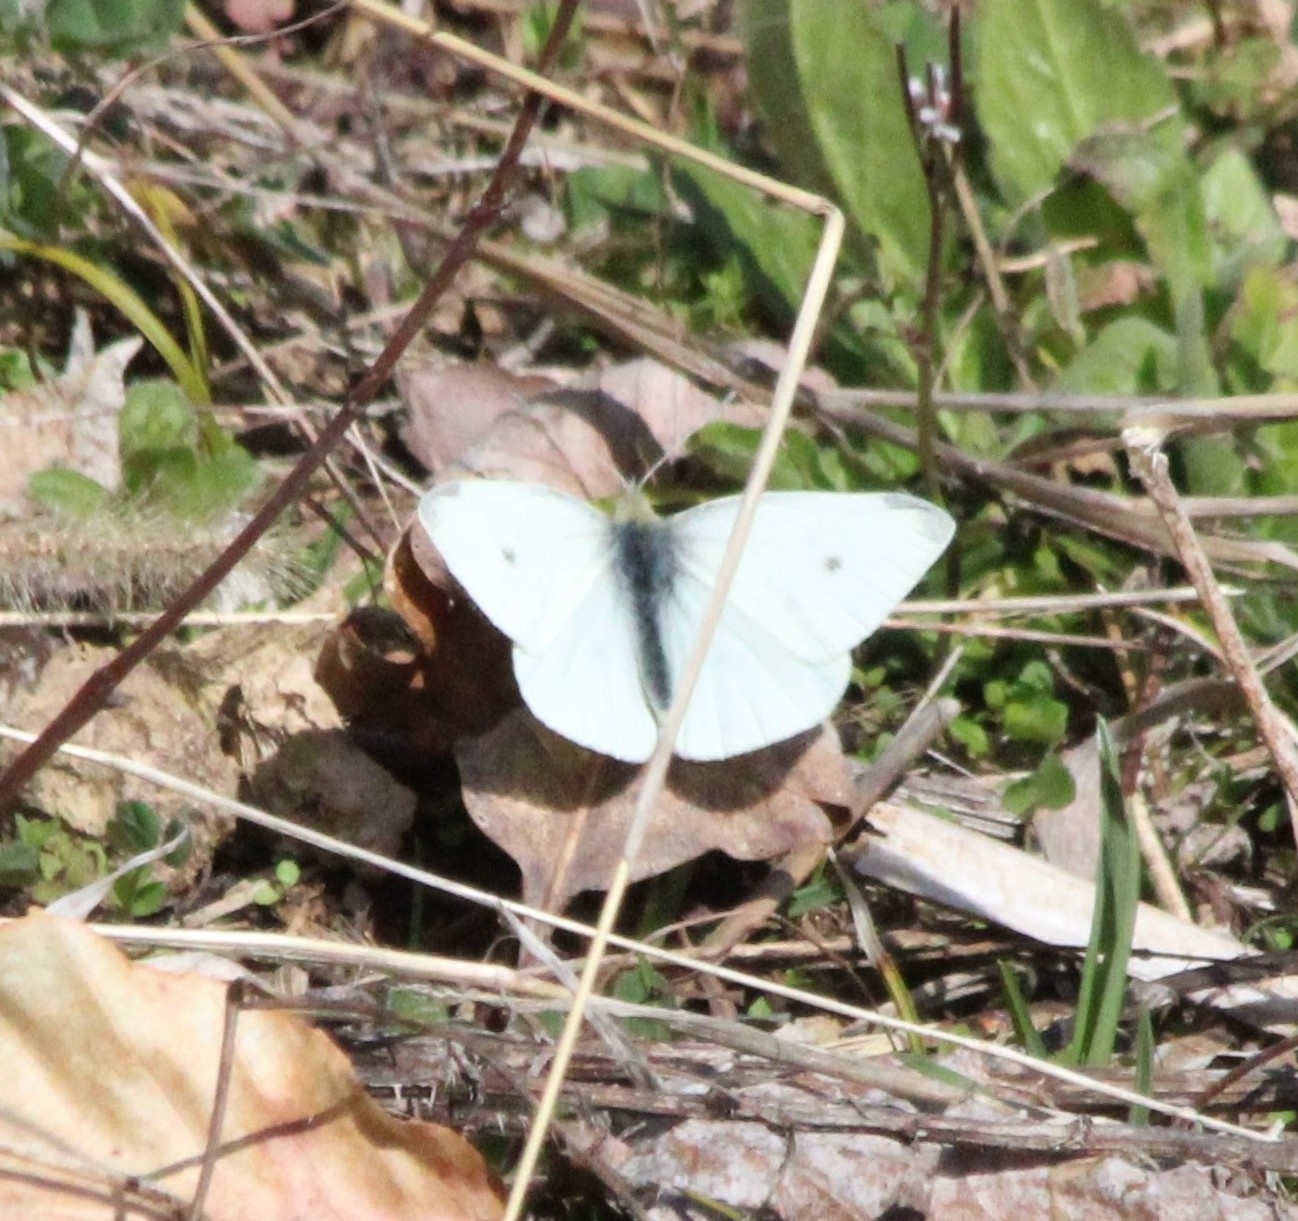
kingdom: Animalia
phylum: Arthropoda
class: Insecta
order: Lepidoptera
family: Pieridae
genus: Pieris
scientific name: Pieris rapae
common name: Small white
